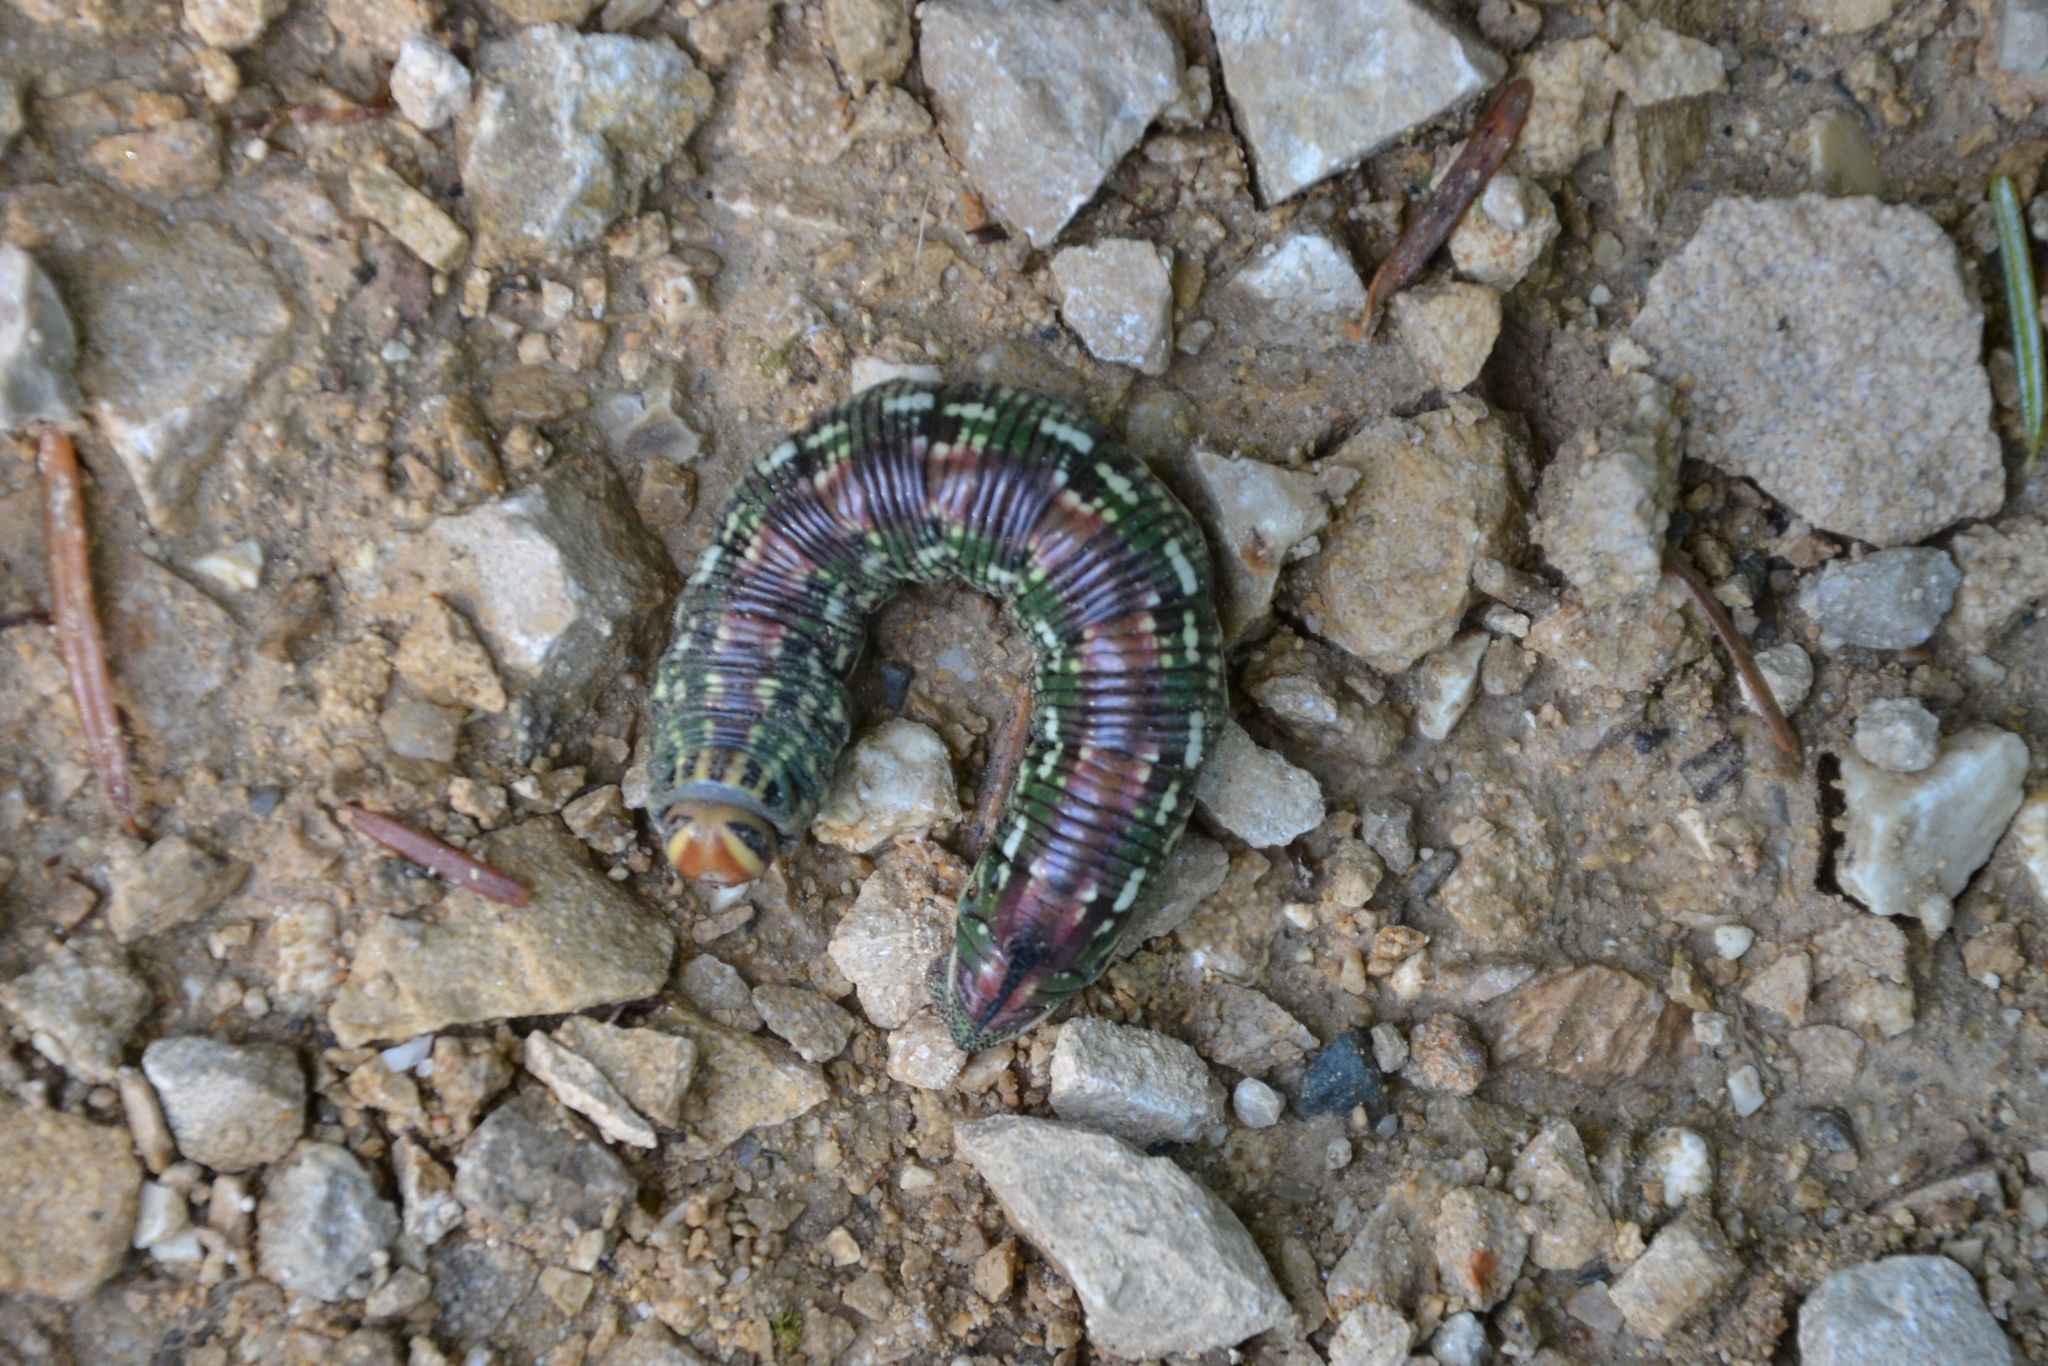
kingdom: Animalia
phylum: Arthropoda
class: Insecta
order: Lepidoptera
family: Sphingidae
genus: Sphinx
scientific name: Sphinx pinastri
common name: Pine hawk-moth
